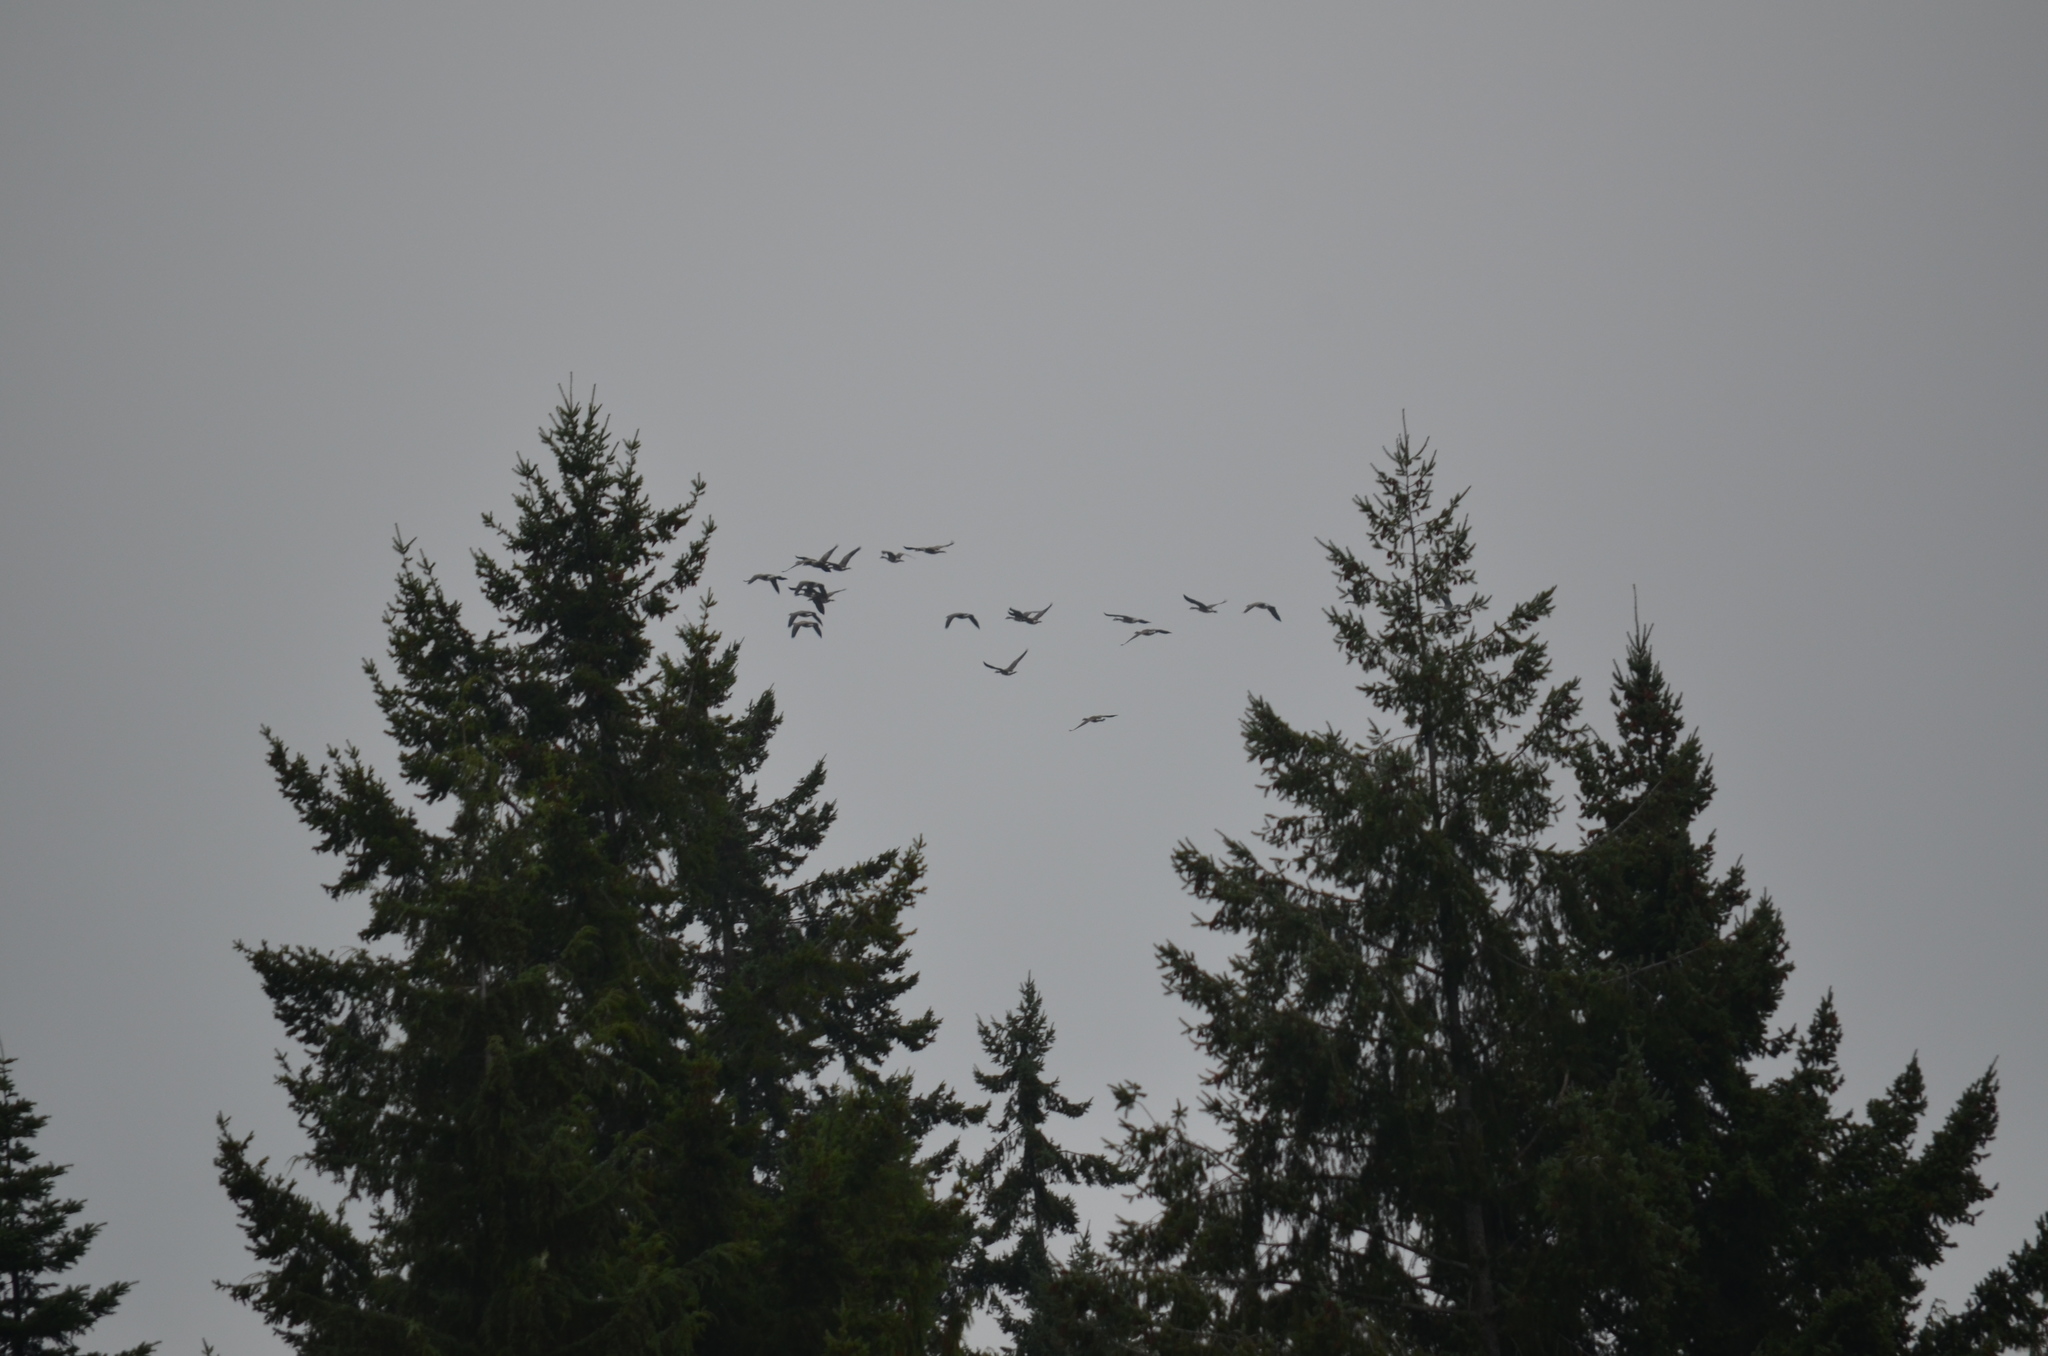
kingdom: Animalia
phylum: Chordata
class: Aves
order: Anseriformes
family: Anatidae
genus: Branta
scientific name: Branta canadensis
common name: Canada goose
